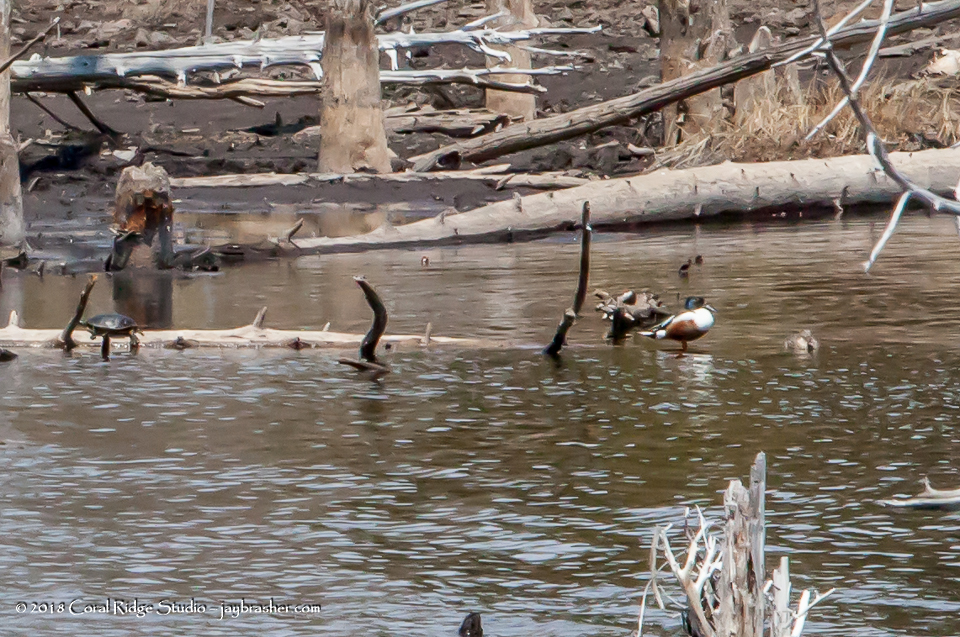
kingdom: Animalia
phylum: Chordata
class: Aves
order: Anseriformes
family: Anatidae
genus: Spatula
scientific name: Spatula clypeata
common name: Northern shoveler
